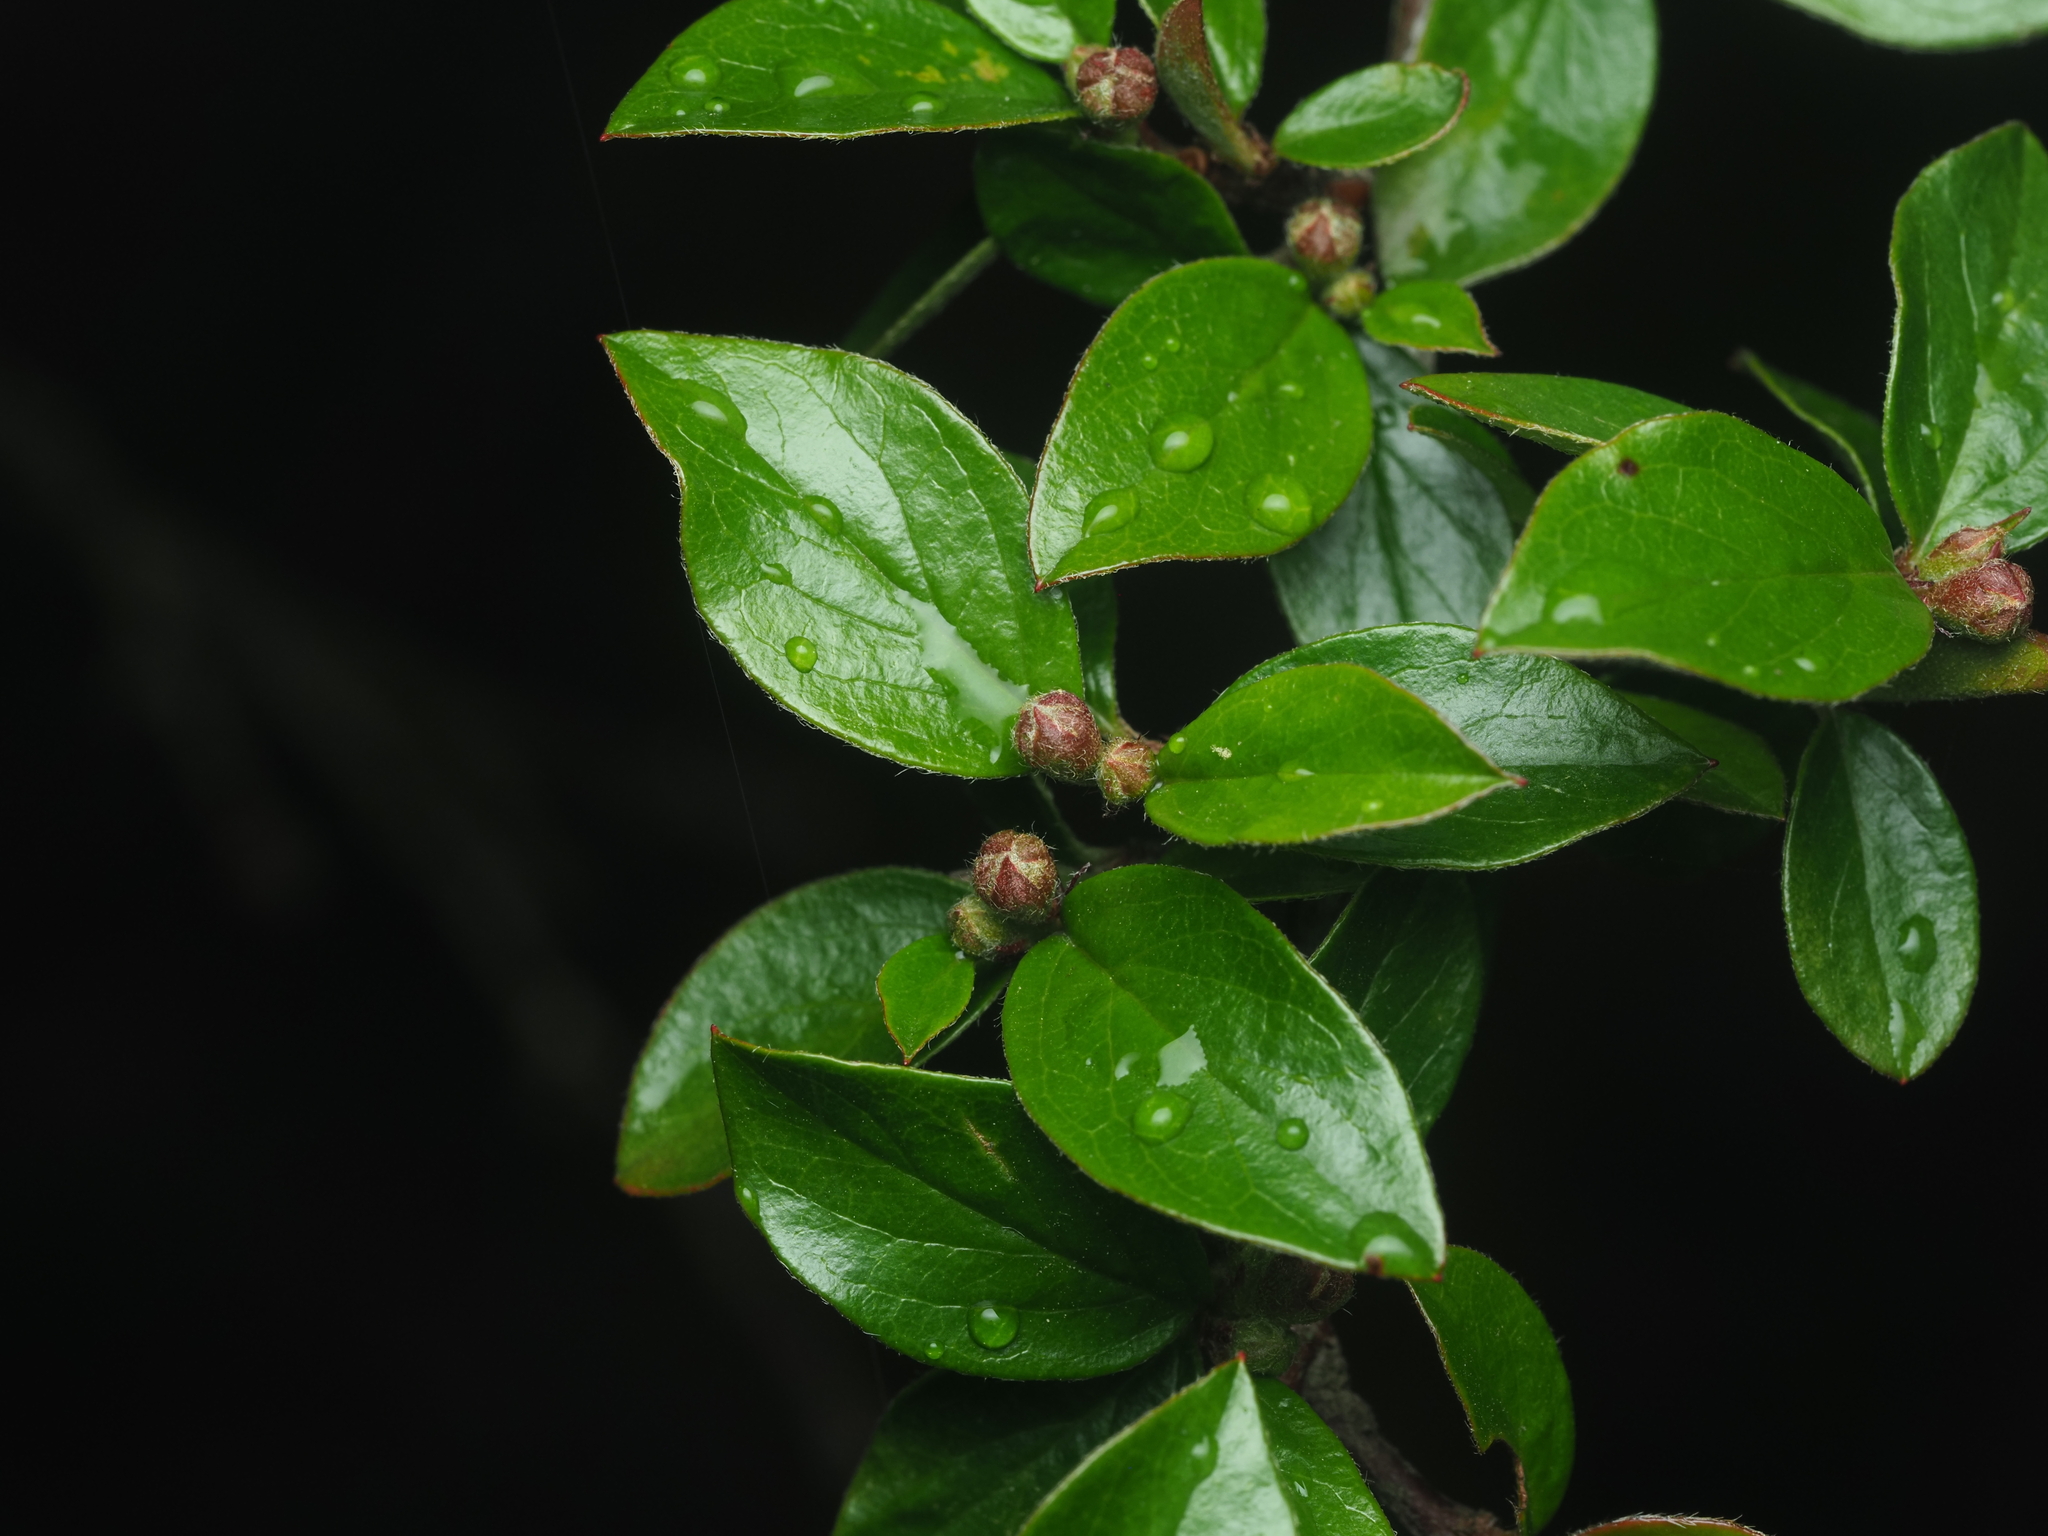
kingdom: Plantae
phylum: Tracheophyta
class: Magnoliopsida
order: Rosales
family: Rosaceae
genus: Cotoneaster
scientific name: Cotoneaster divaricatus
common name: Spreading cotoneaster
